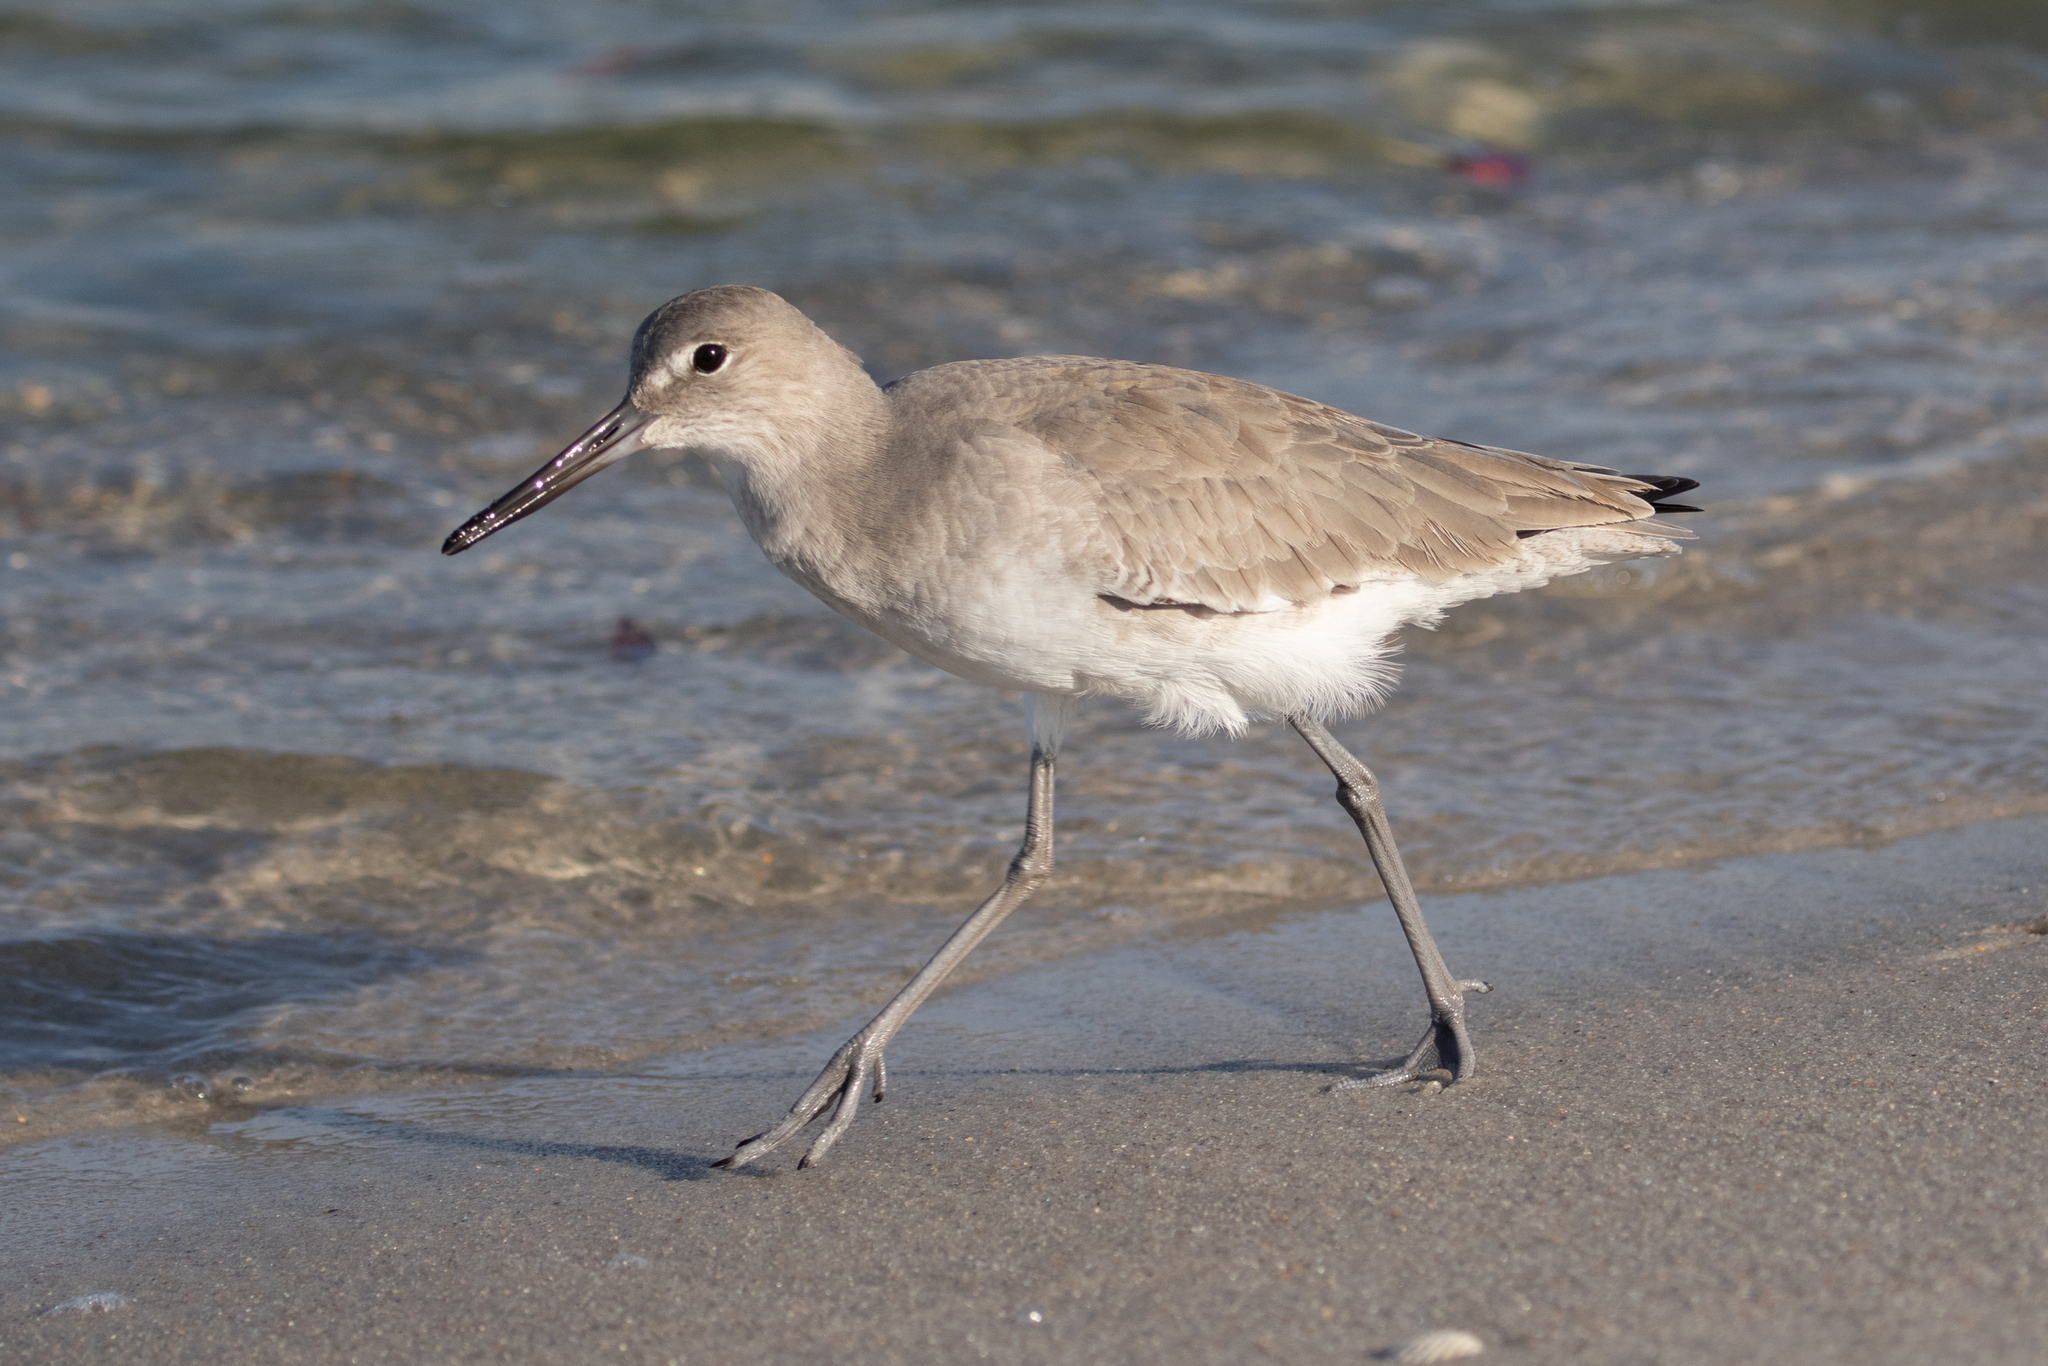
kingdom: Animalia
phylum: Chordata
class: Aves
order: Charadriiformes
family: Scolopacidae
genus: Tringa
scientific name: Tringa semipalmata
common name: Willet
